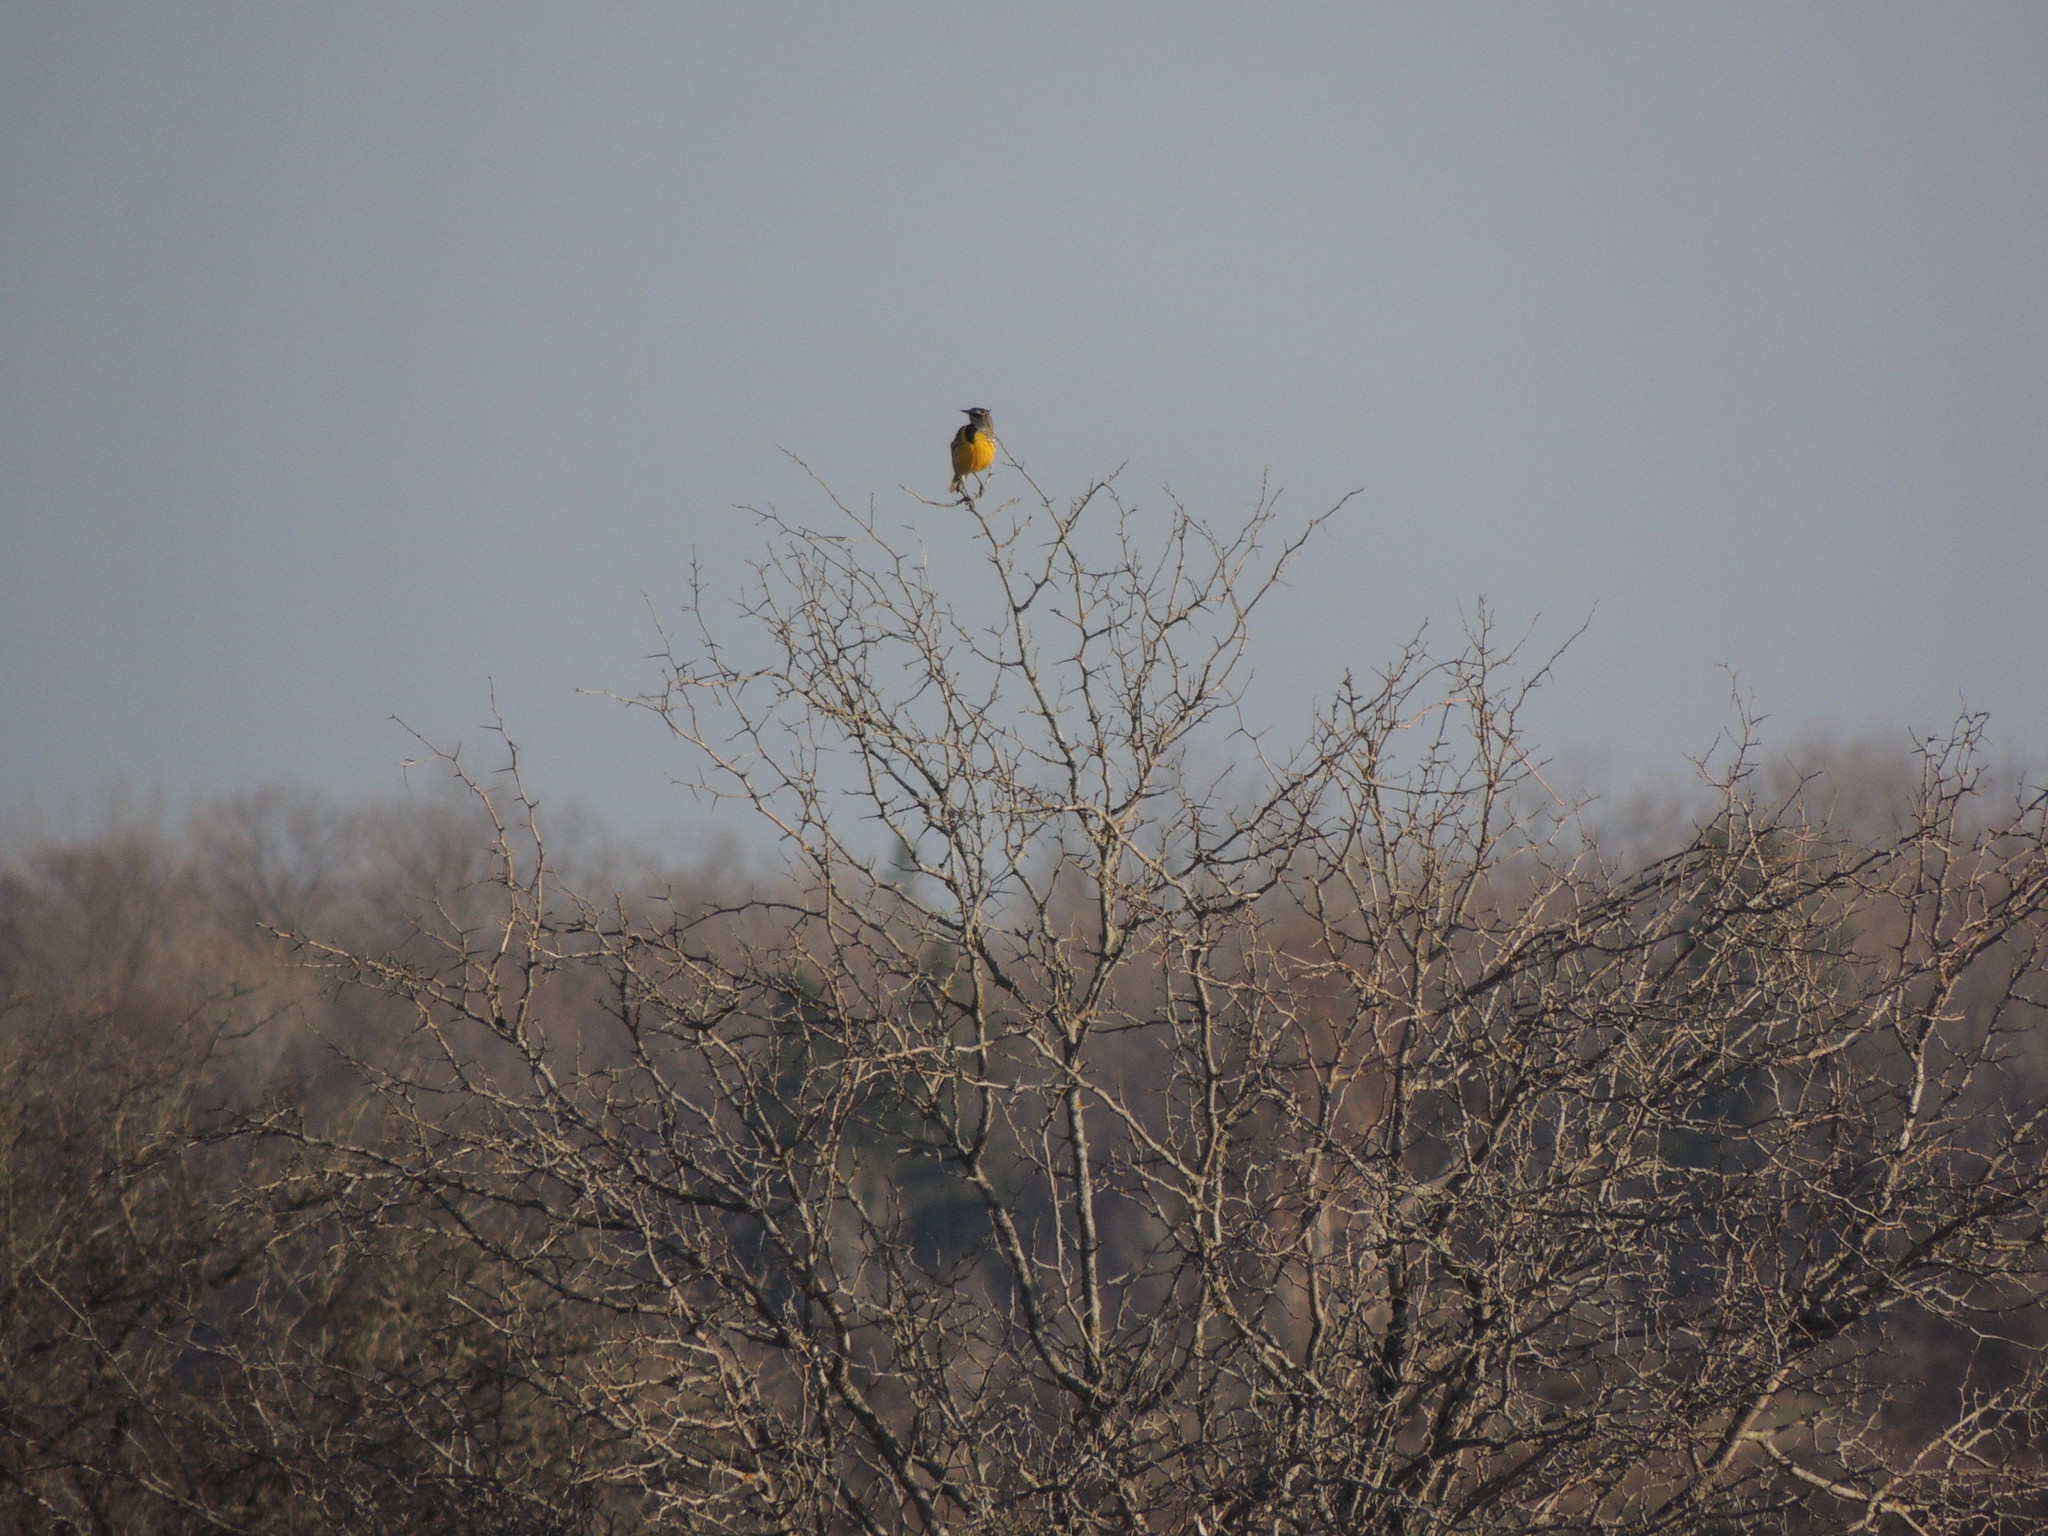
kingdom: Animalia
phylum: Chordata
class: Aves
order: Passeriformes
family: Icteridae
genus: Sturnella
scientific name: Sturnella magna
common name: Eastern meadowlark
